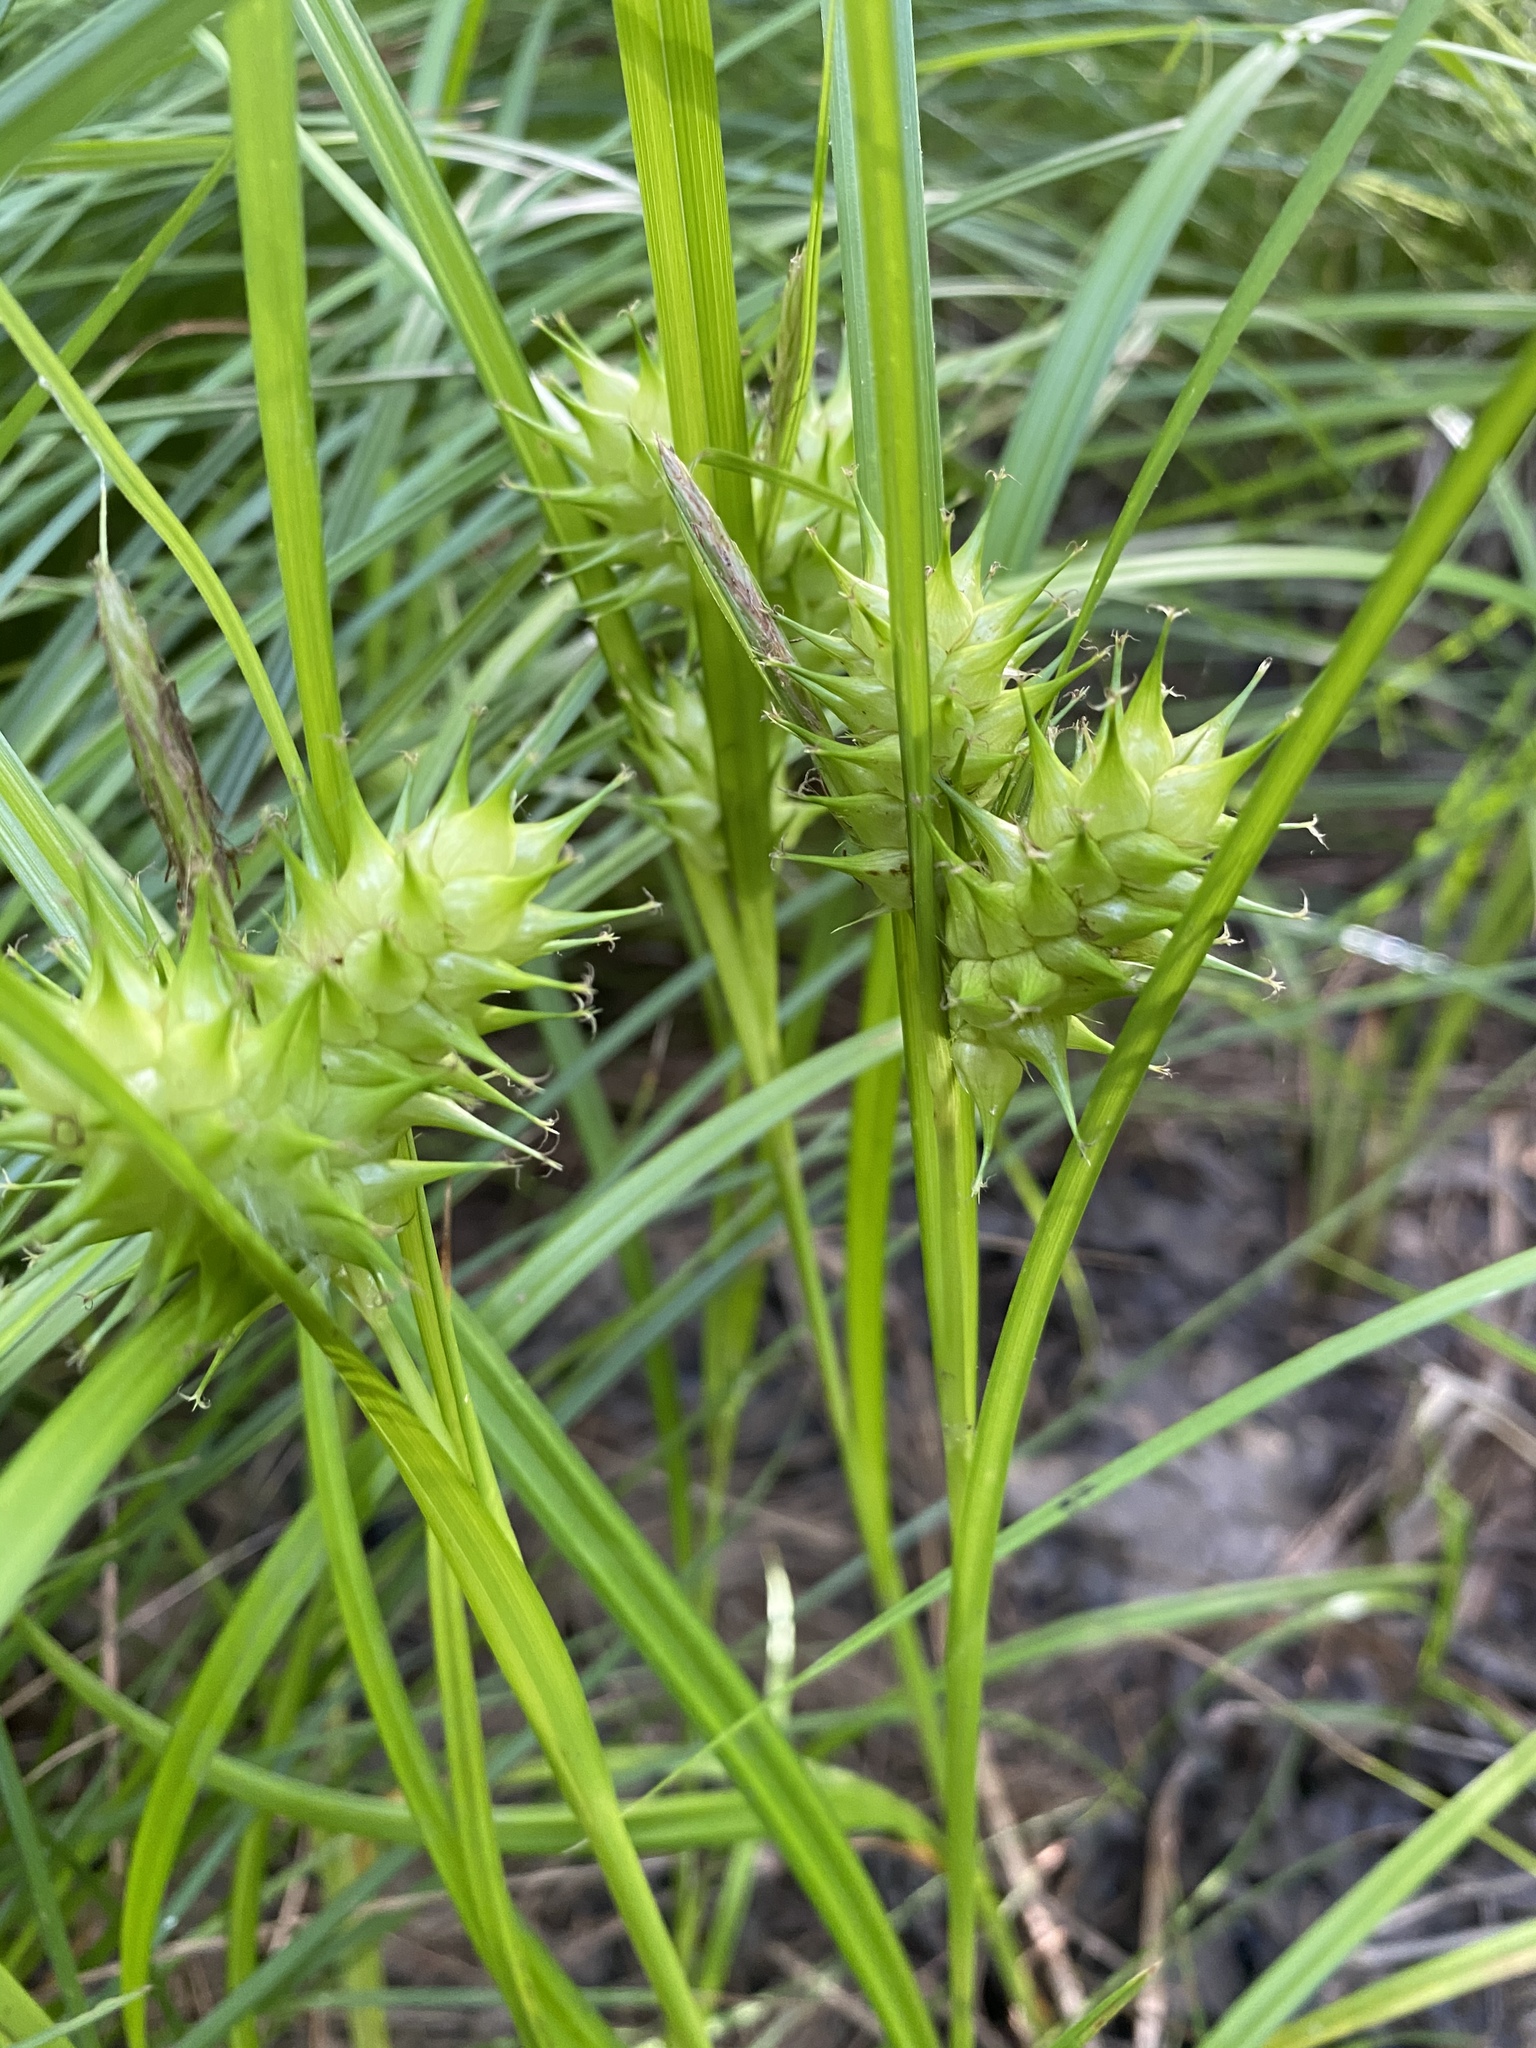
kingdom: Plantae
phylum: Tracheophyta
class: Liliopsida
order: Poales
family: Cyperaceae
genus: Carex
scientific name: Carex lupulina
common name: Hop sedge
